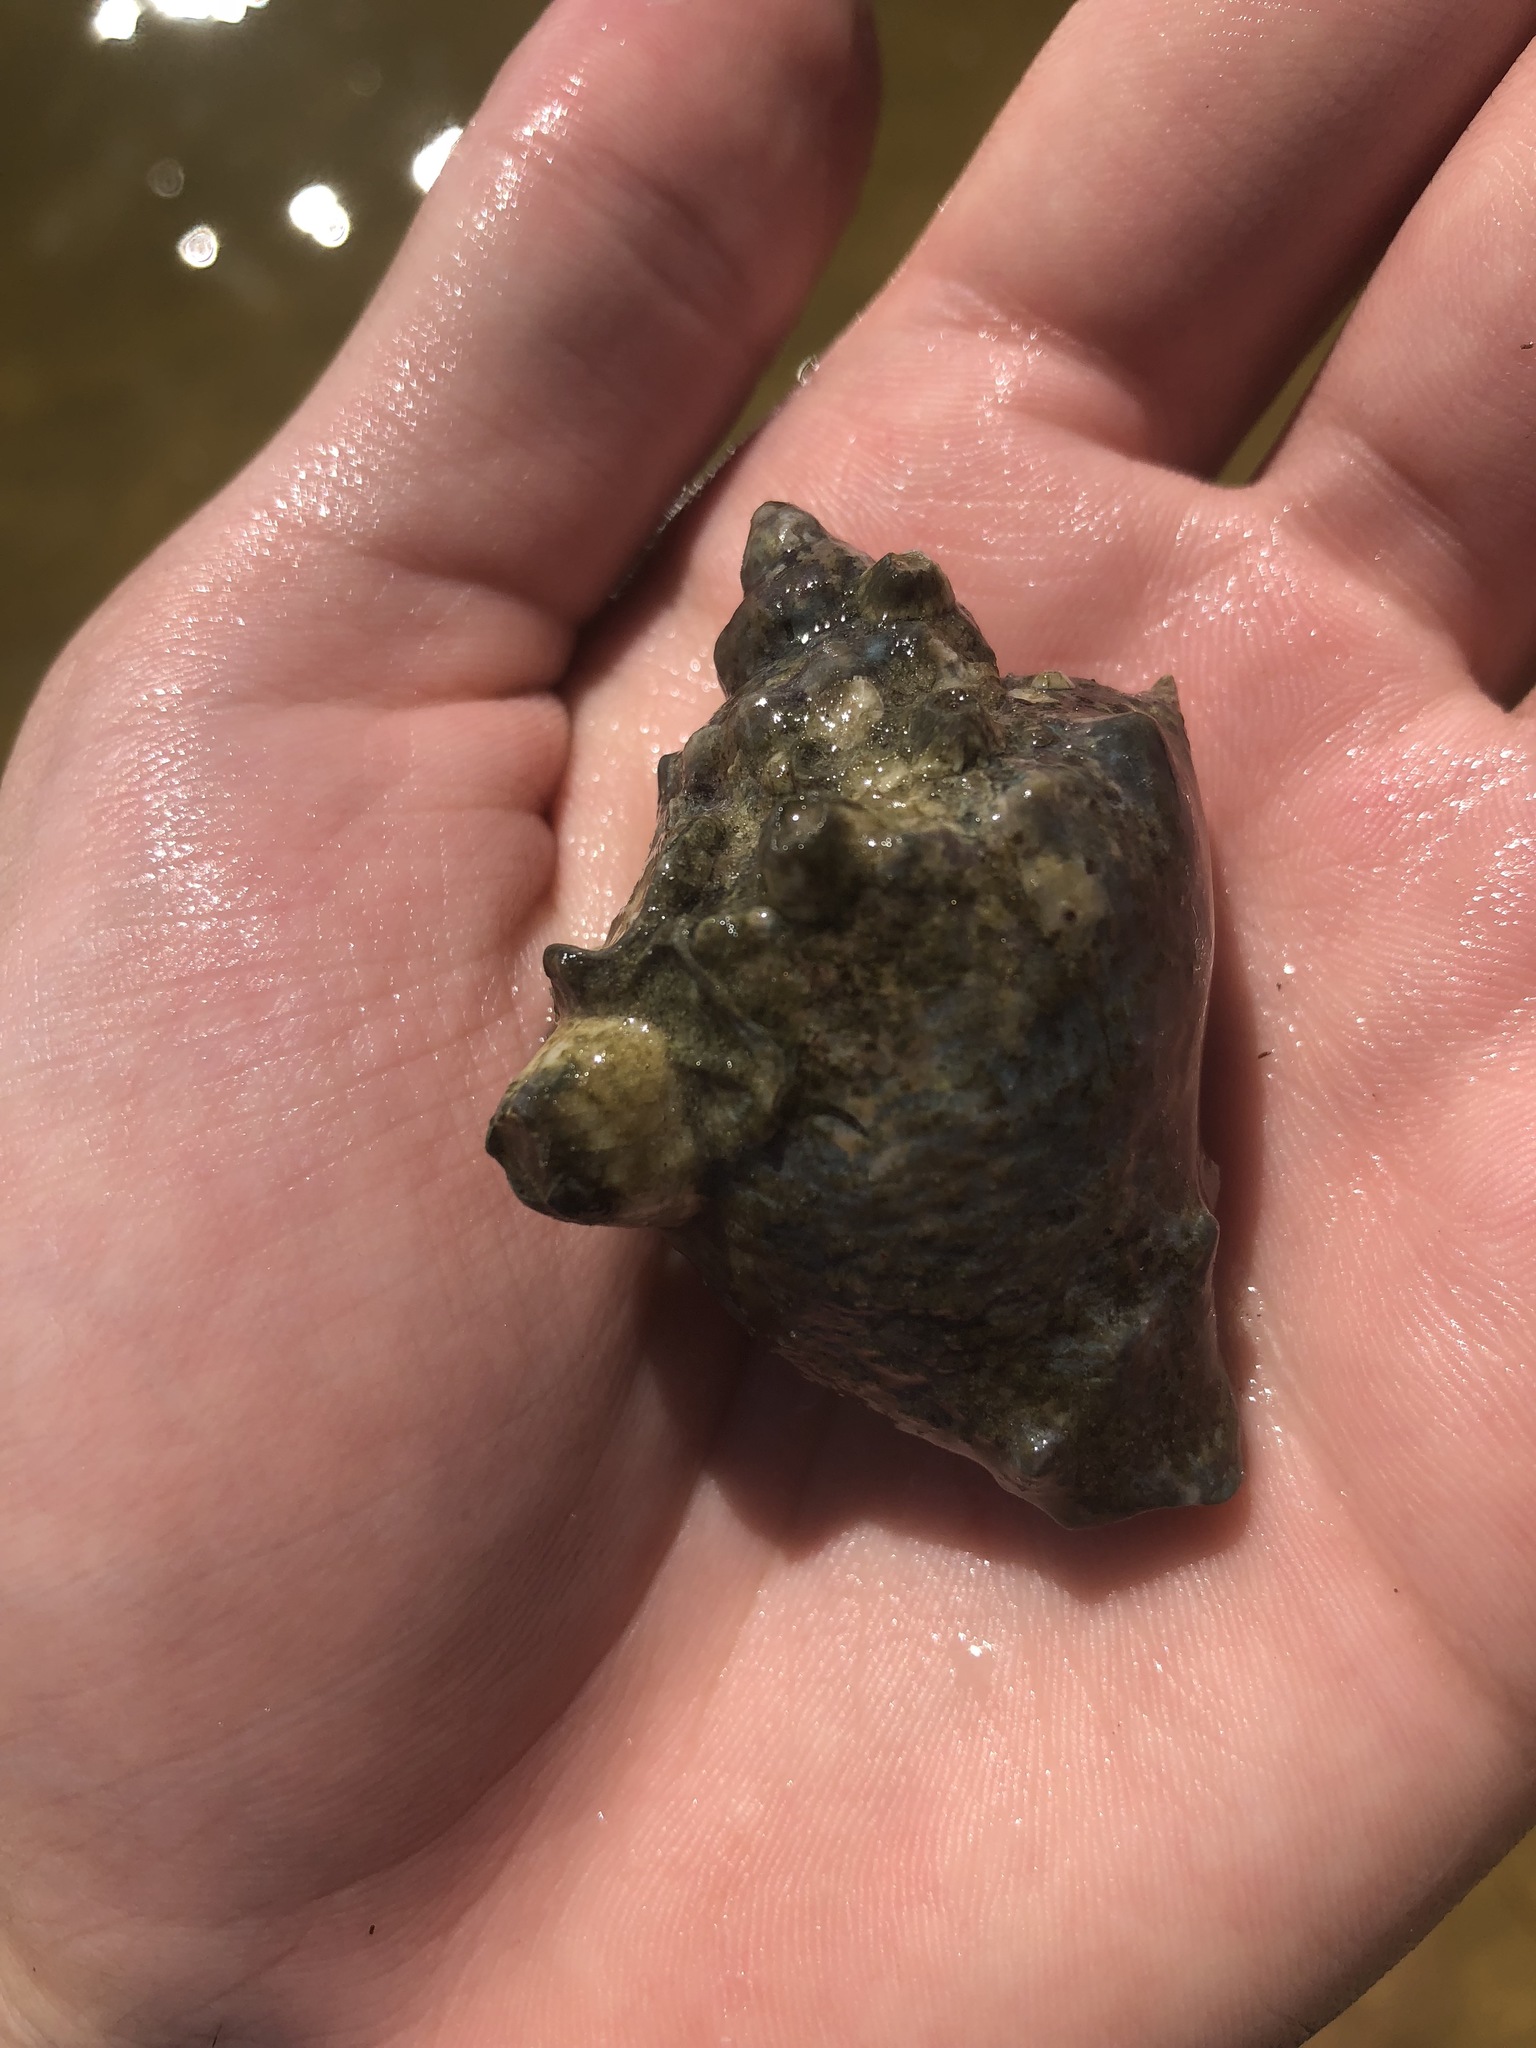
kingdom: Animalia
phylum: Mollusca
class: Gastropoda
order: Neogastropoda
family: Melongenidae
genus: Melongena
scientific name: Melongena corona
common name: American crown conch
